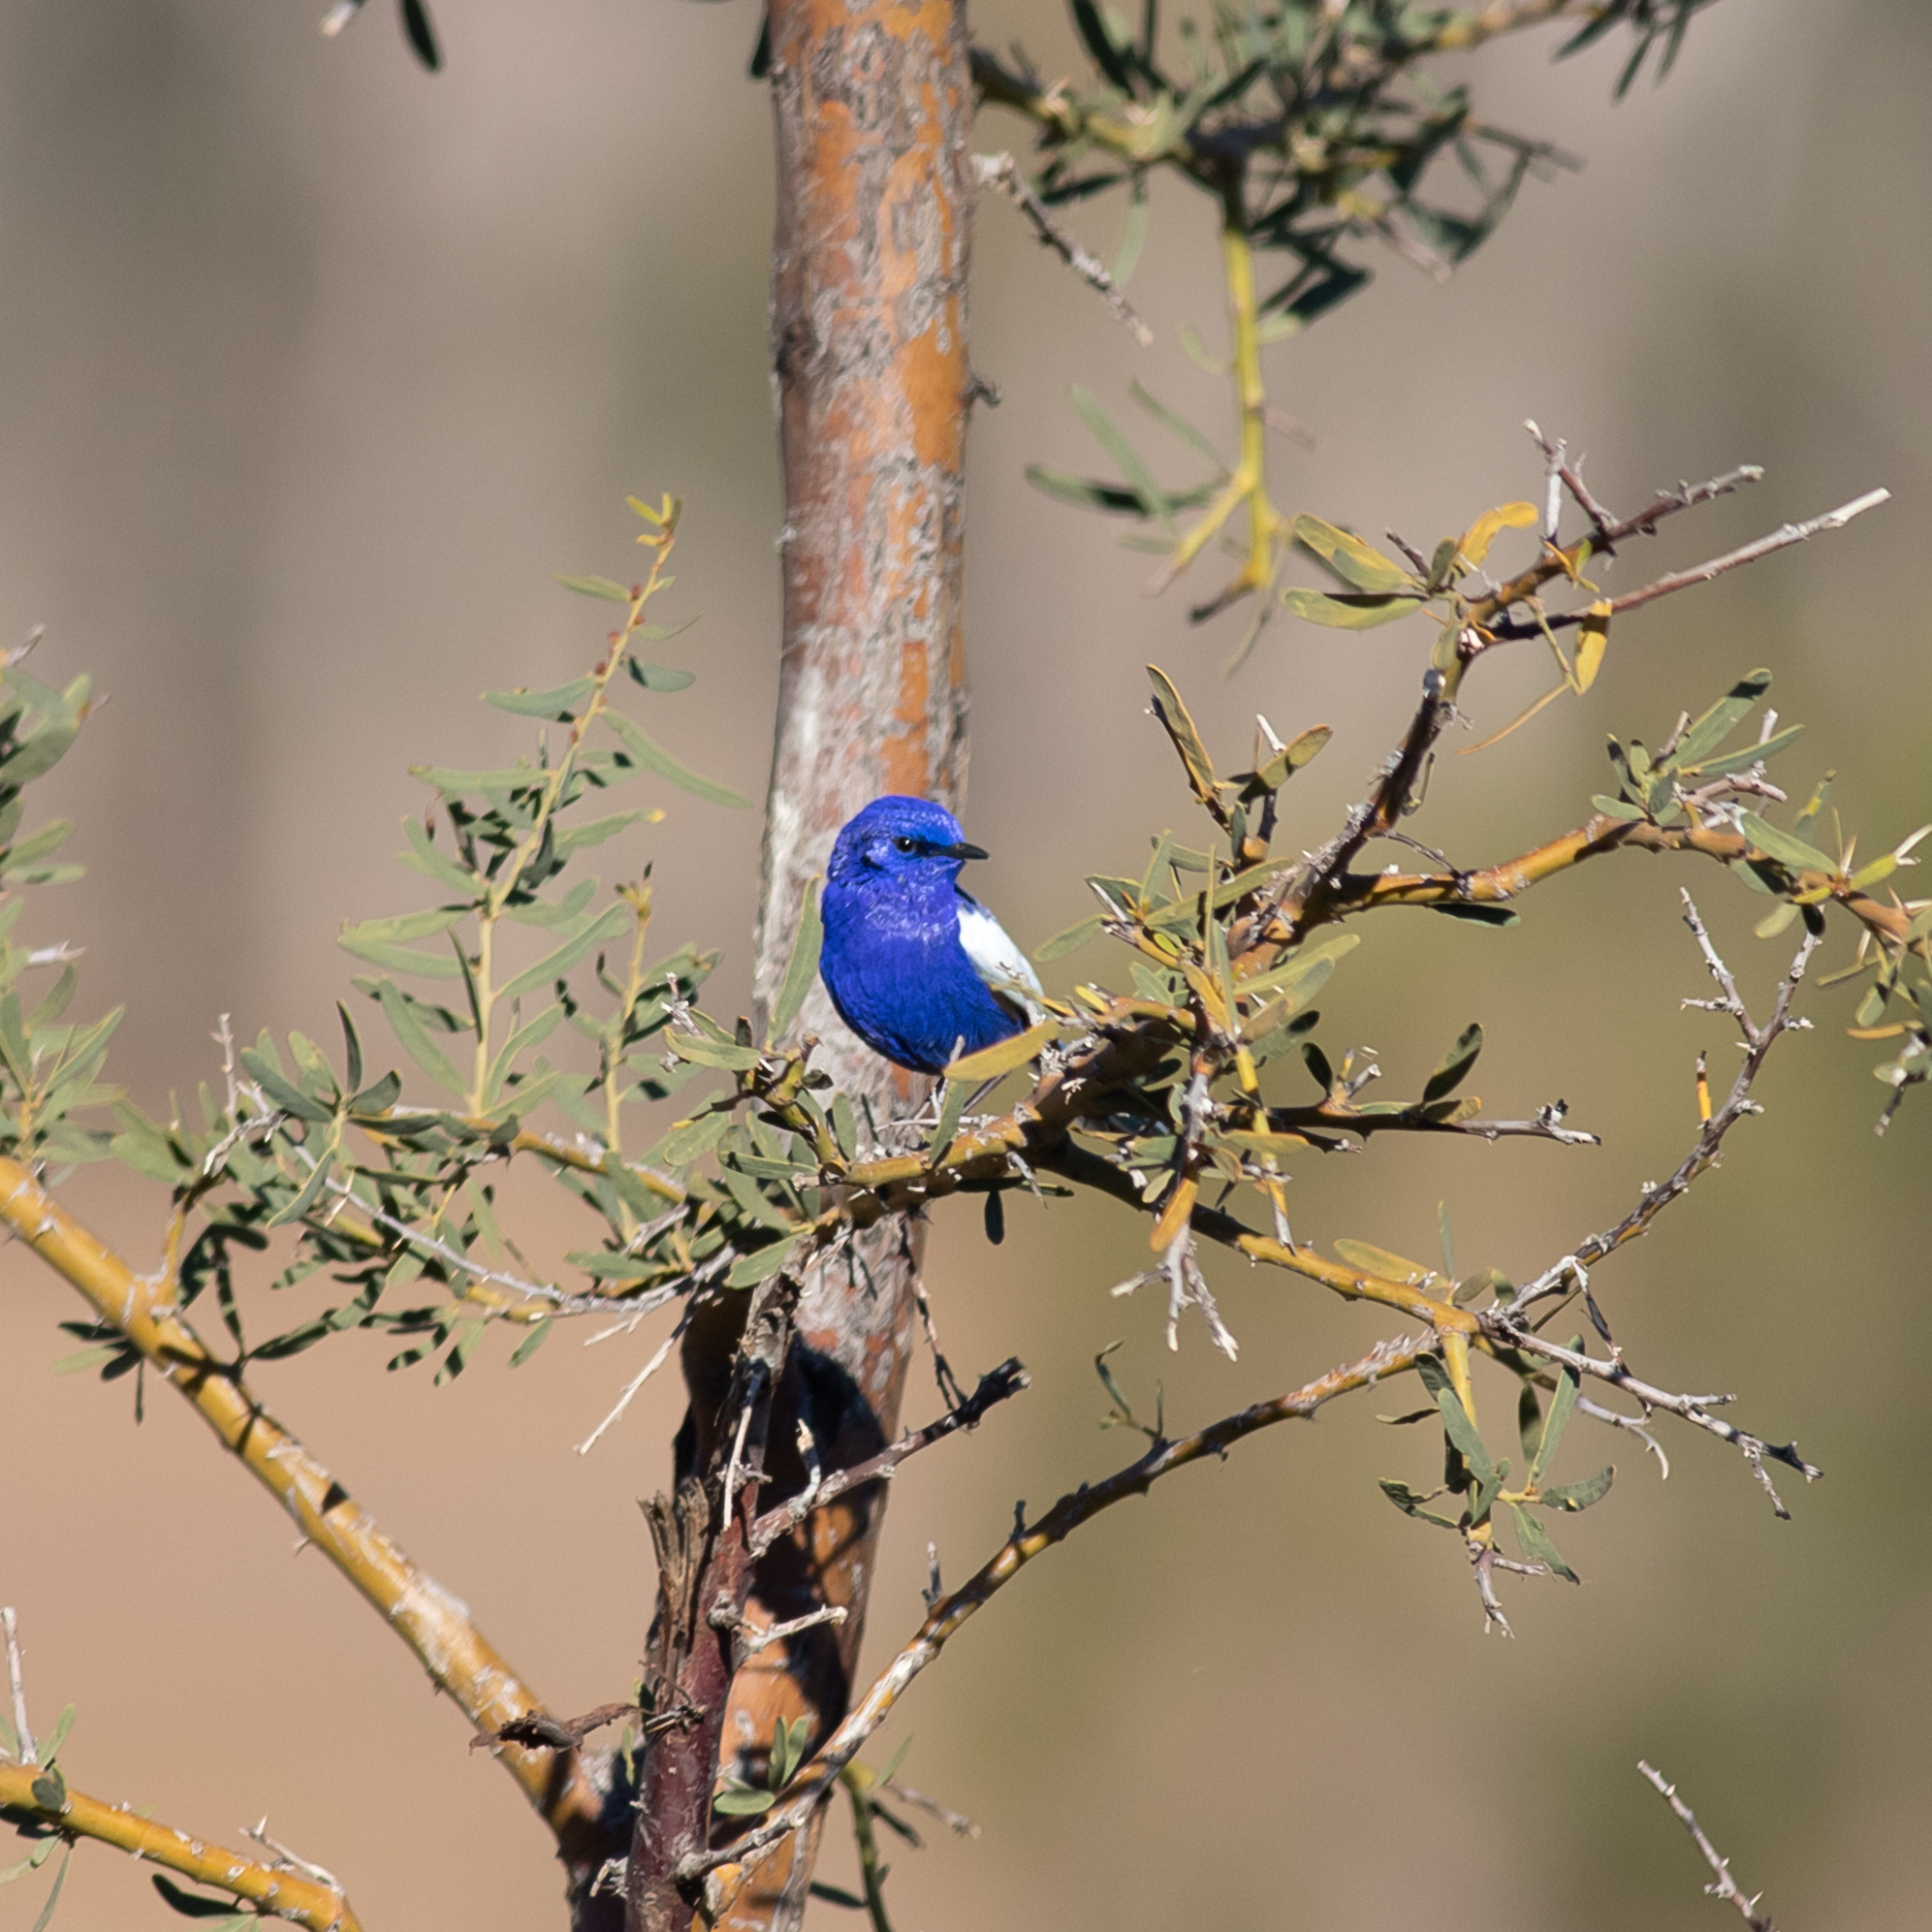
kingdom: Animalia
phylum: Chordata
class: Aves
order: Passeriformes
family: Maluridae
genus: Malurus
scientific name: Malurus leucopterus
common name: White-winged fairywren
